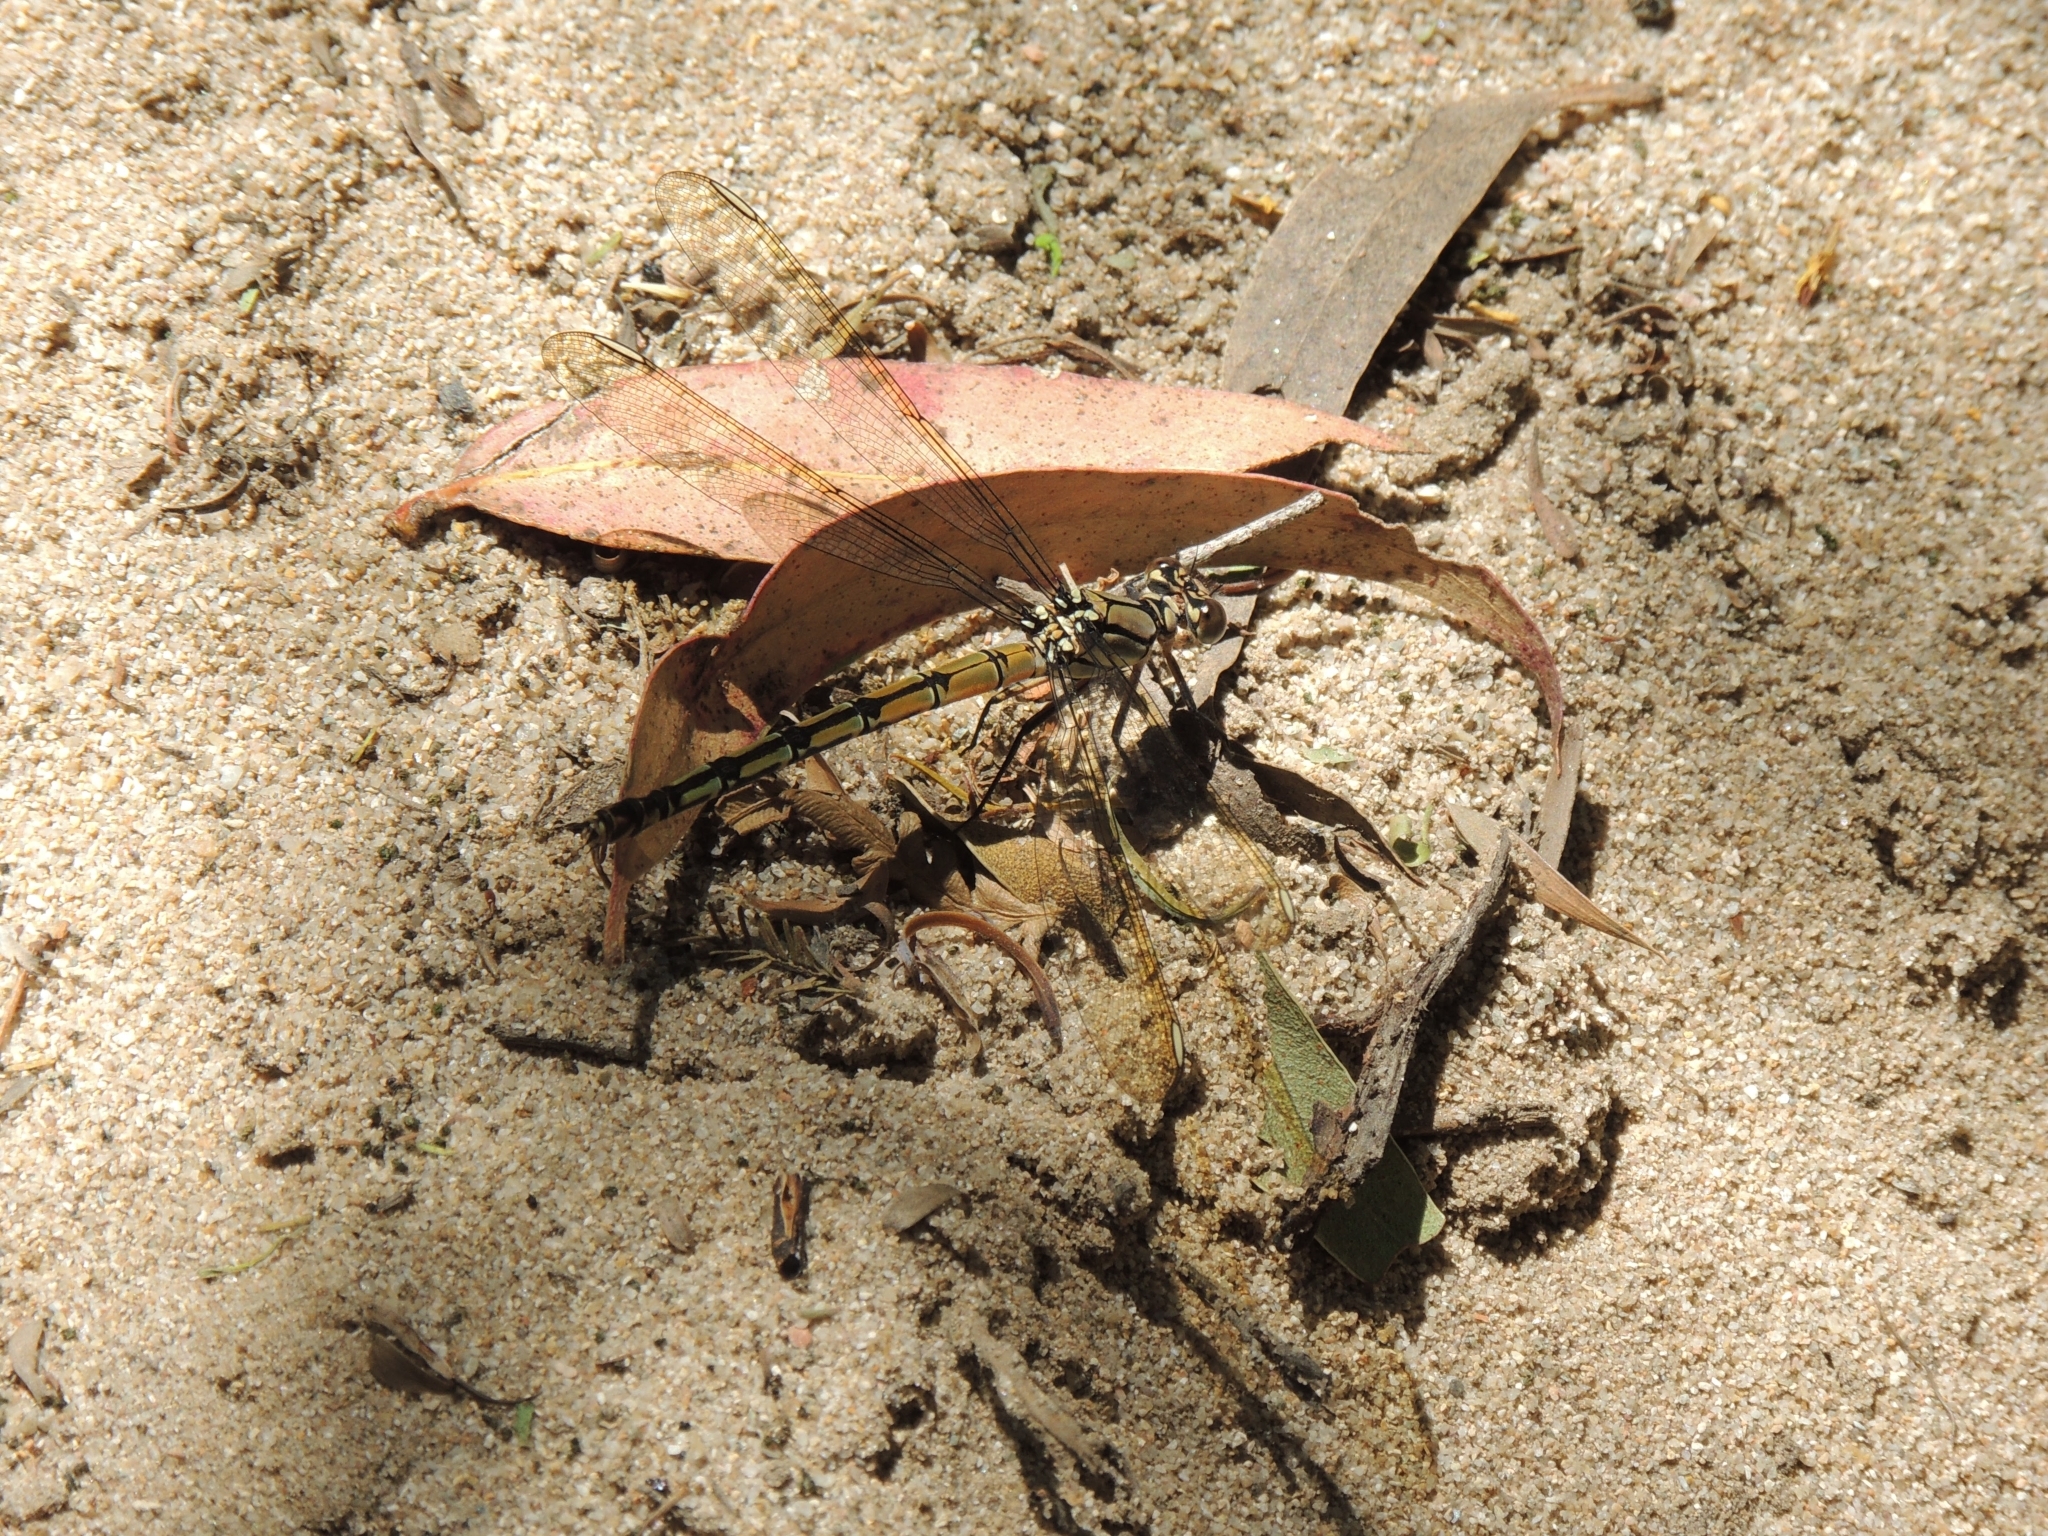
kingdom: Animalia
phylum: Arthropoda
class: Insecta
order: Odonata
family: Lestoideidae
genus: Diphlebia
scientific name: Diphlebia nymphoides
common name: Arrowhead rockmaster
